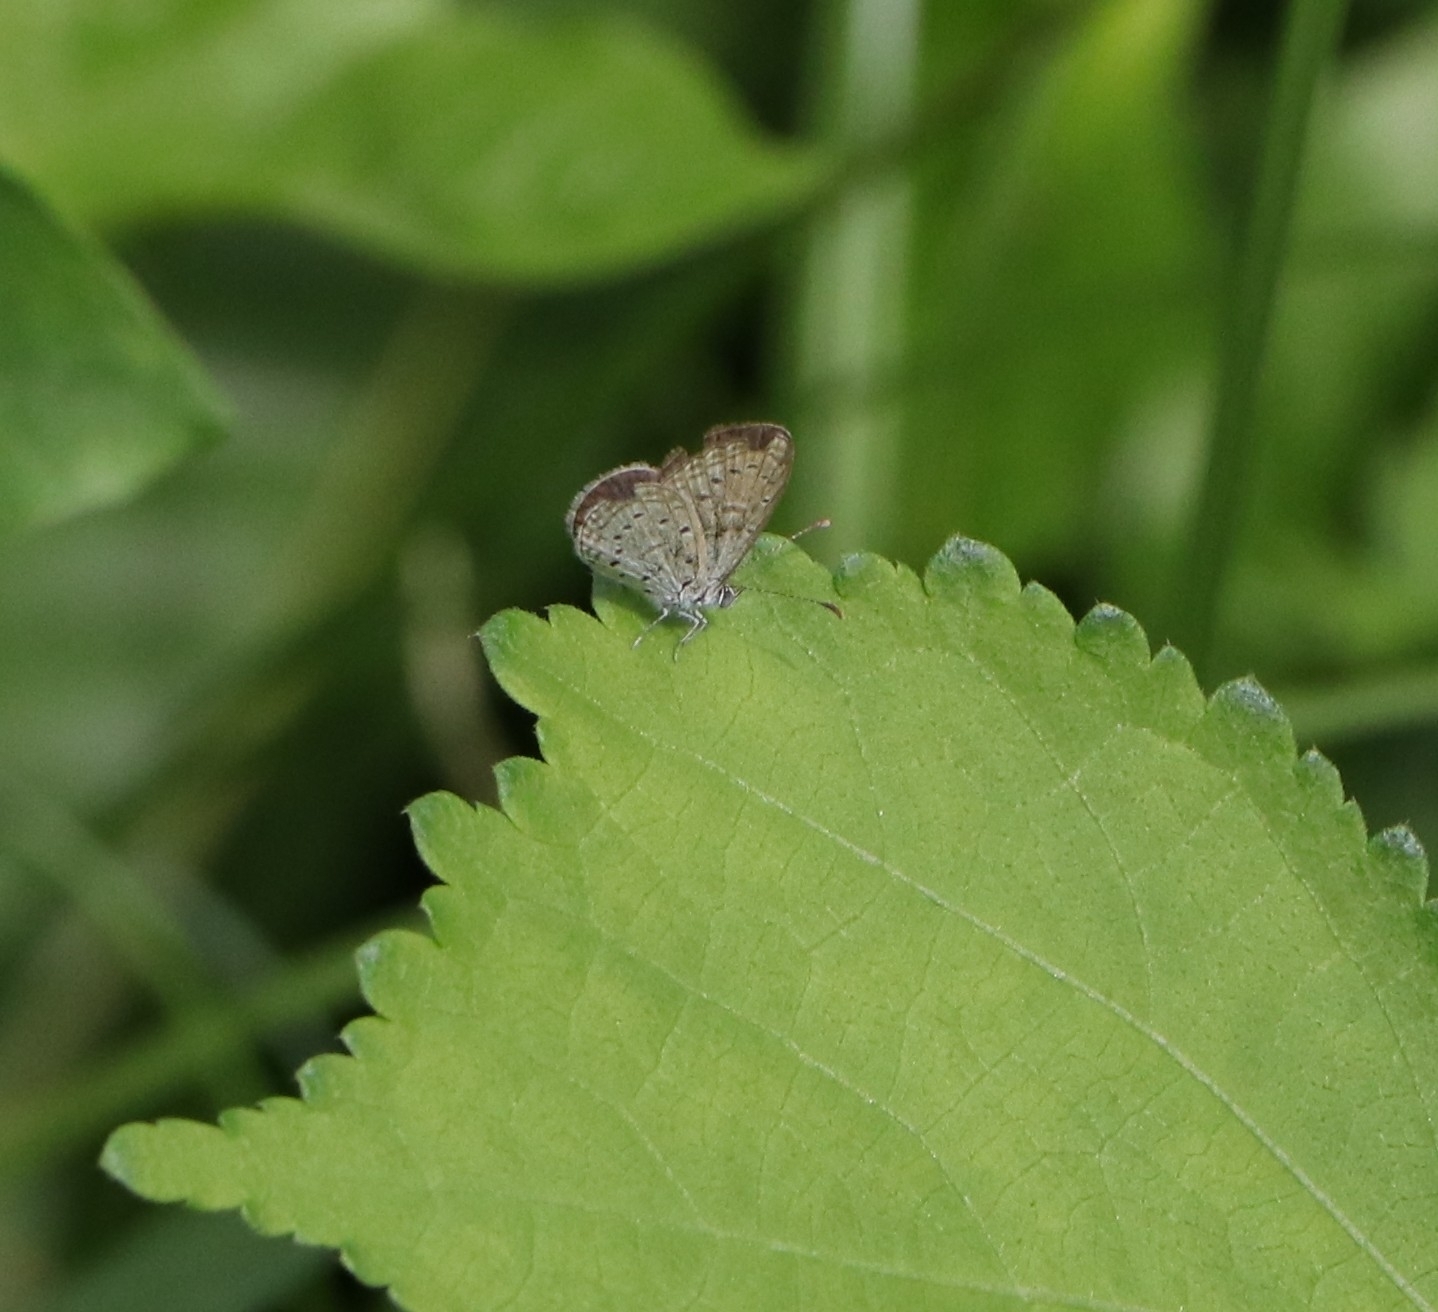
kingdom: Animalia
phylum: Arthropoda
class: Insecta
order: Lepidoptera
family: Lycaenidae
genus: Zizula
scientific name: Zizula hylax
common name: Gaika blue
